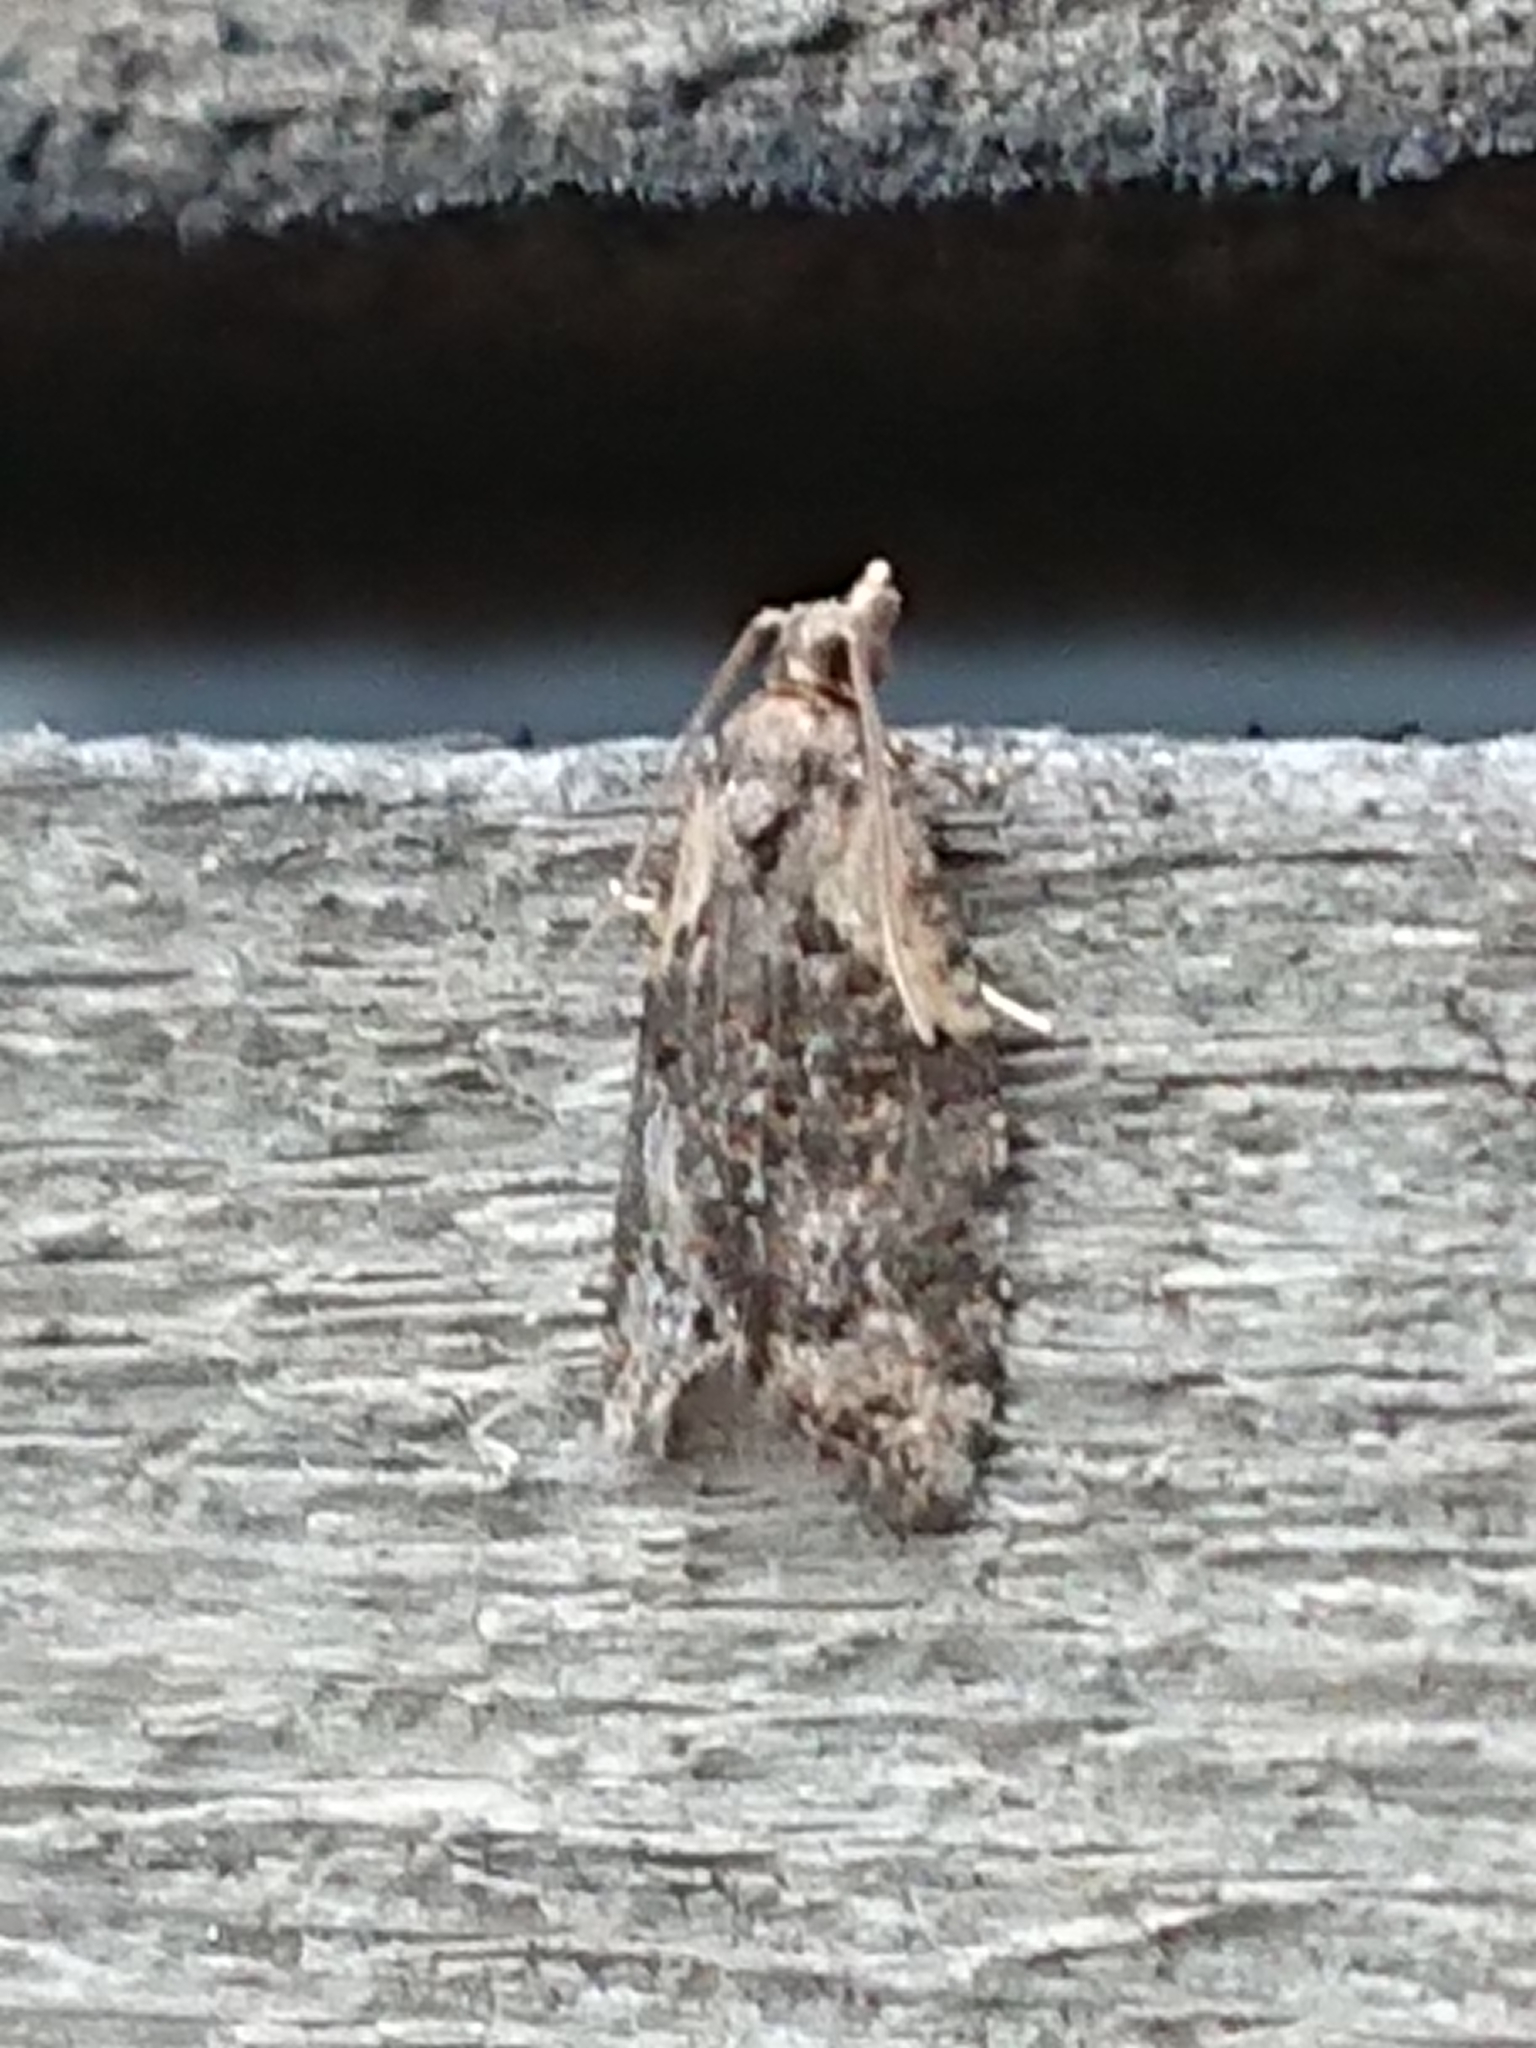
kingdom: Animalia
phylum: Arthropoda
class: Insecta
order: Lepidoptera
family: Tortricidae
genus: Capua
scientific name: Capua intractana
